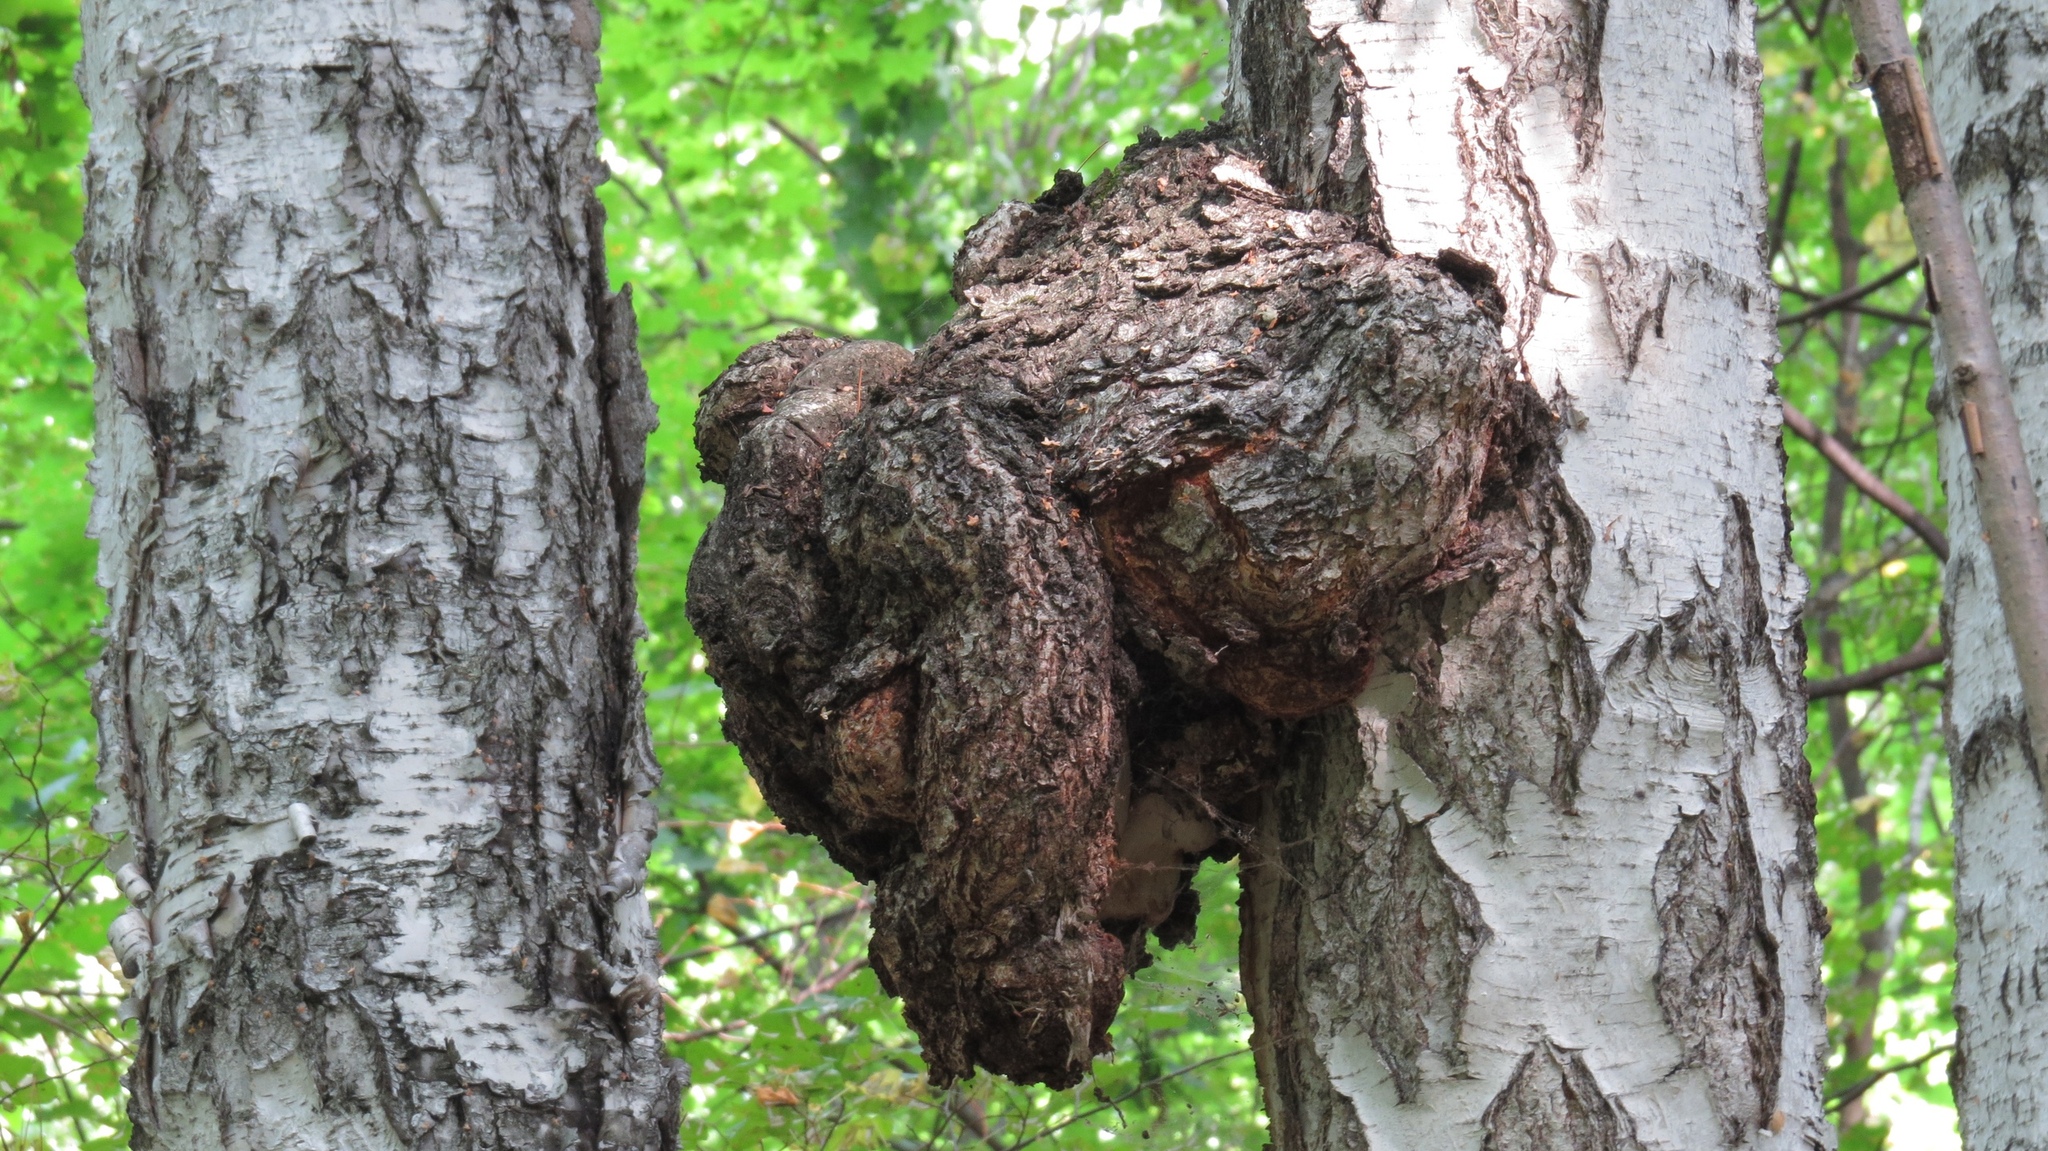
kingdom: Plantae
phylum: Tracheophyta
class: Magnoliopsida
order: Fagales
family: Betulaceae
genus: Betula
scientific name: Betula pendula
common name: Silver birch
